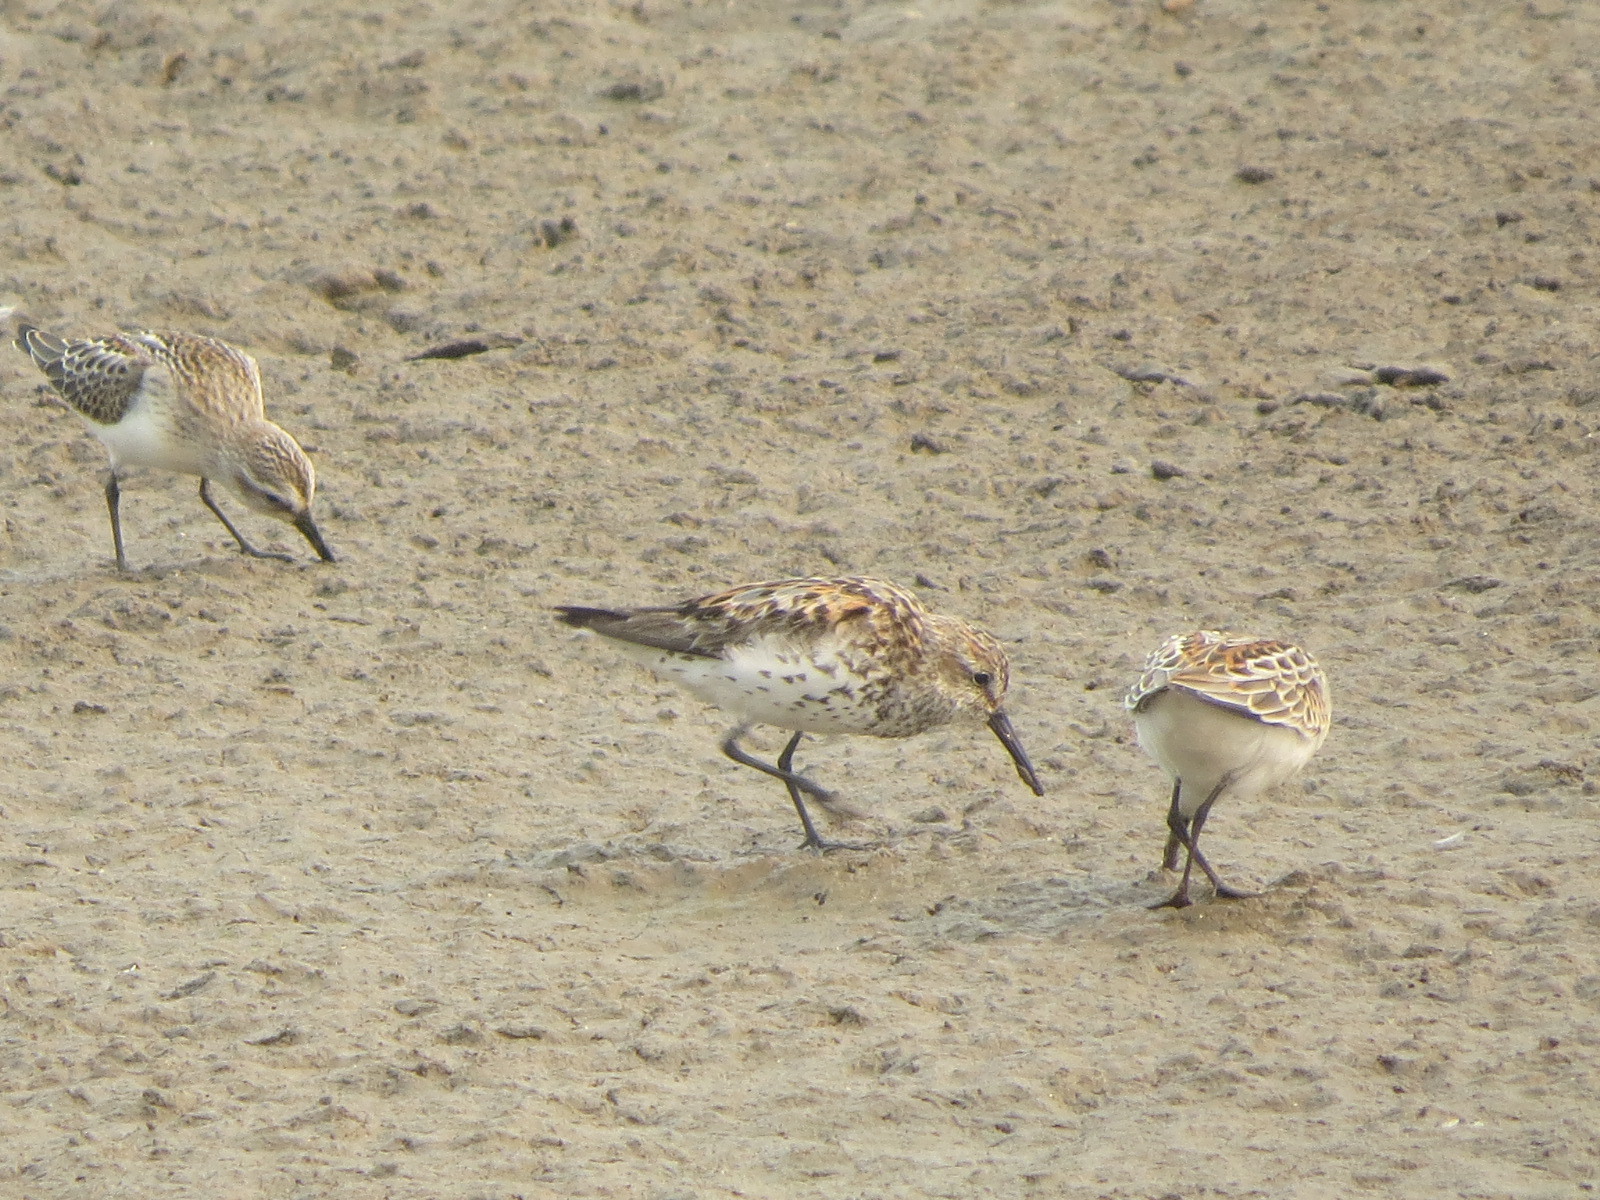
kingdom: Animalia
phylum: Chordata
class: Aves
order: Charadriiformes
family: Scolopacidae
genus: Calidris
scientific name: Calidris mauri
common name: Western sandpiper
